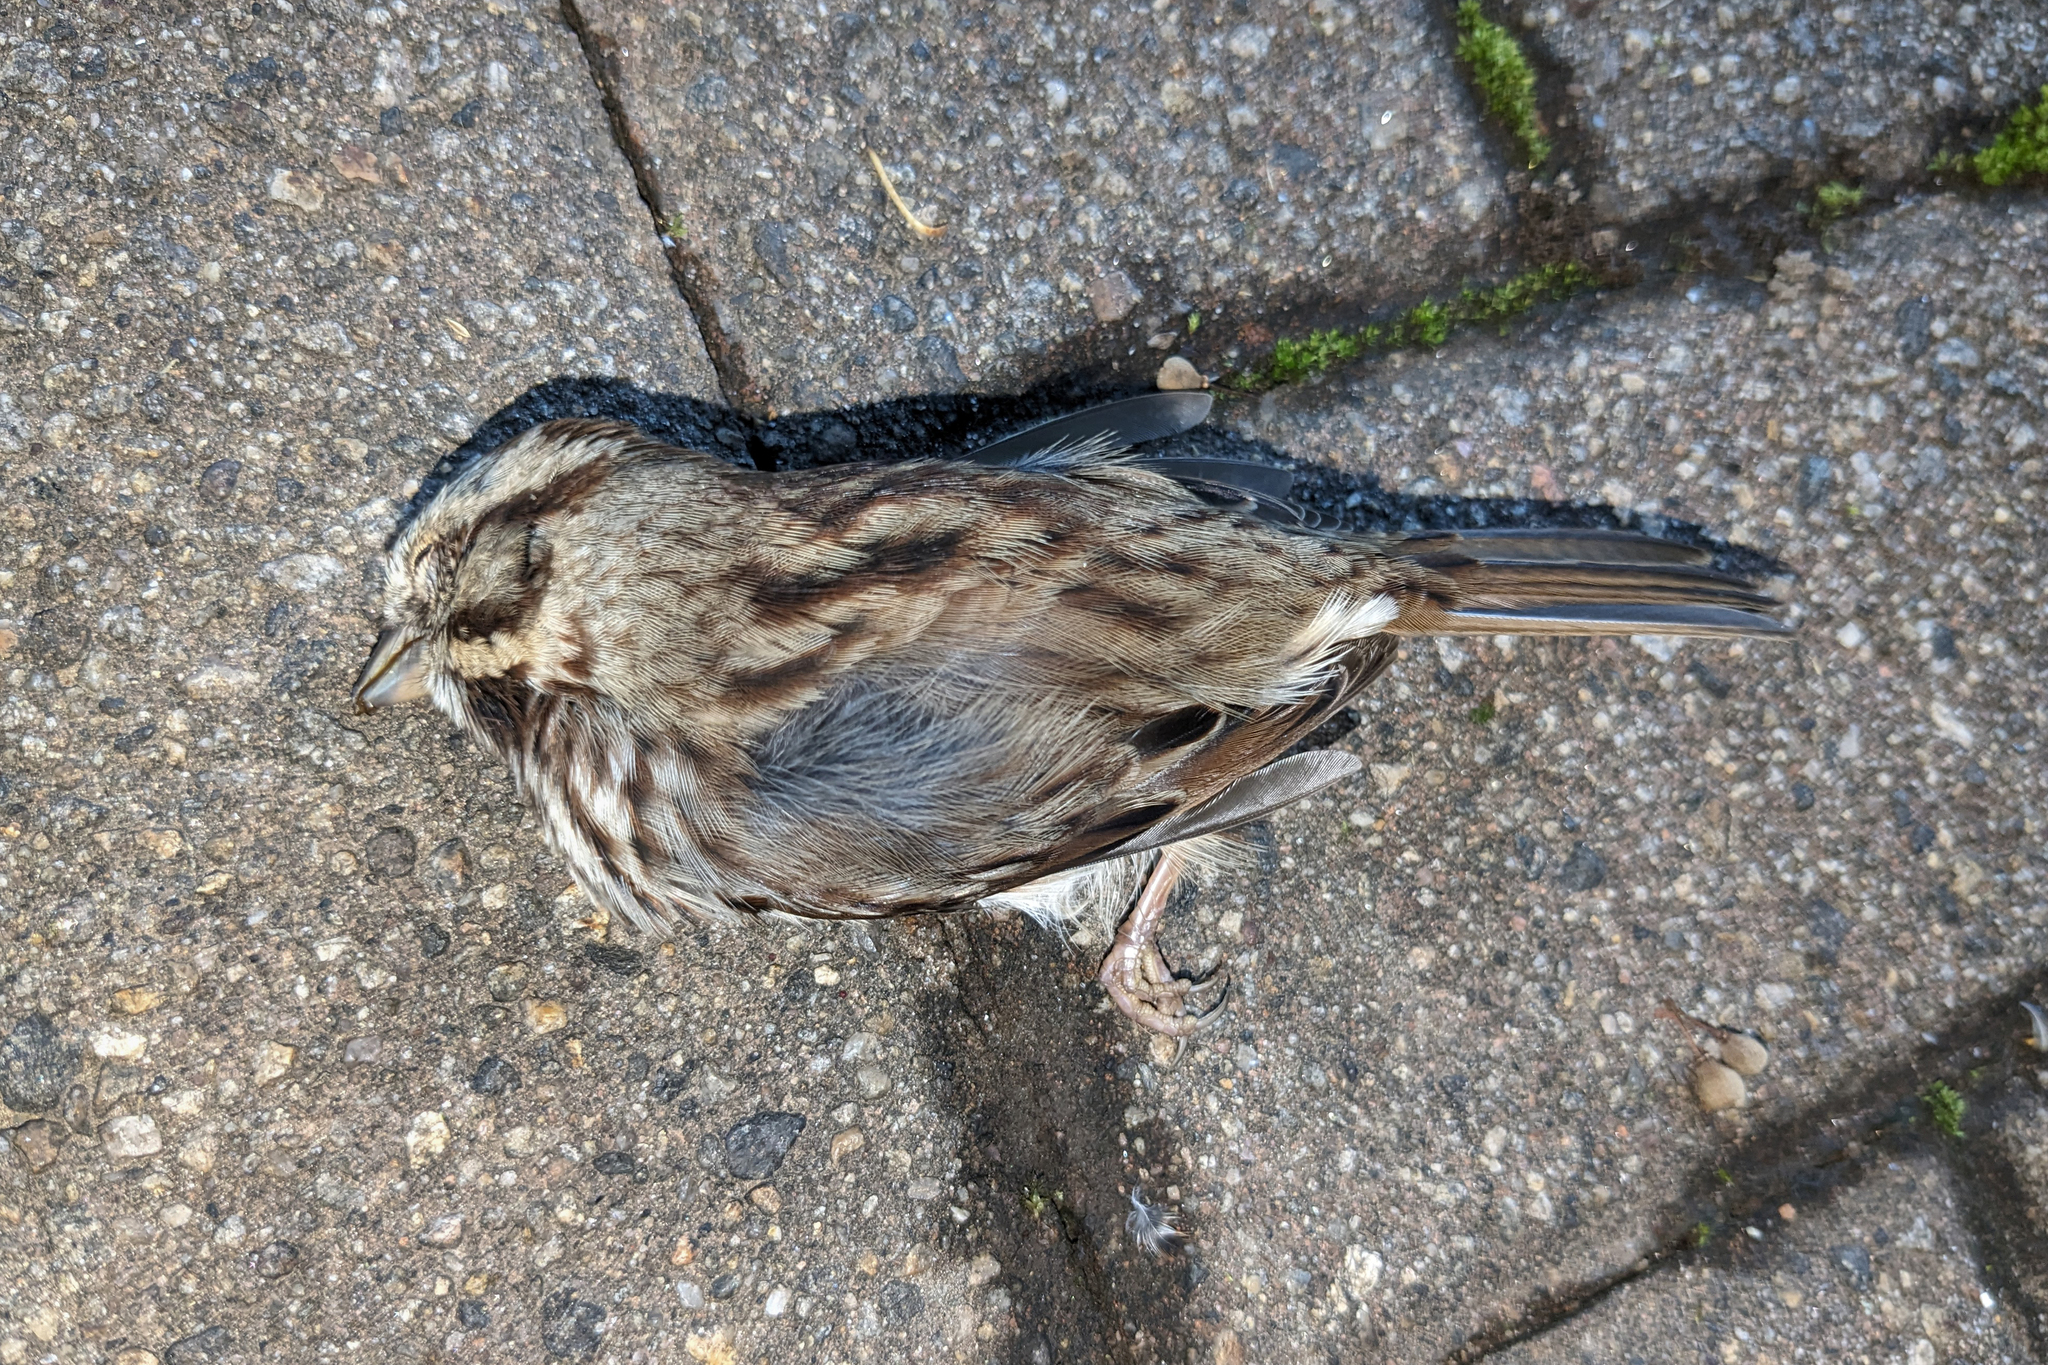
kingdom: Animalia
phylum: Chordata
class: Aves
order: Passeriformes
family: Passerellidae
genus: Melospiza
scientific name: Melospiza melodia
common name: Song sparrow
